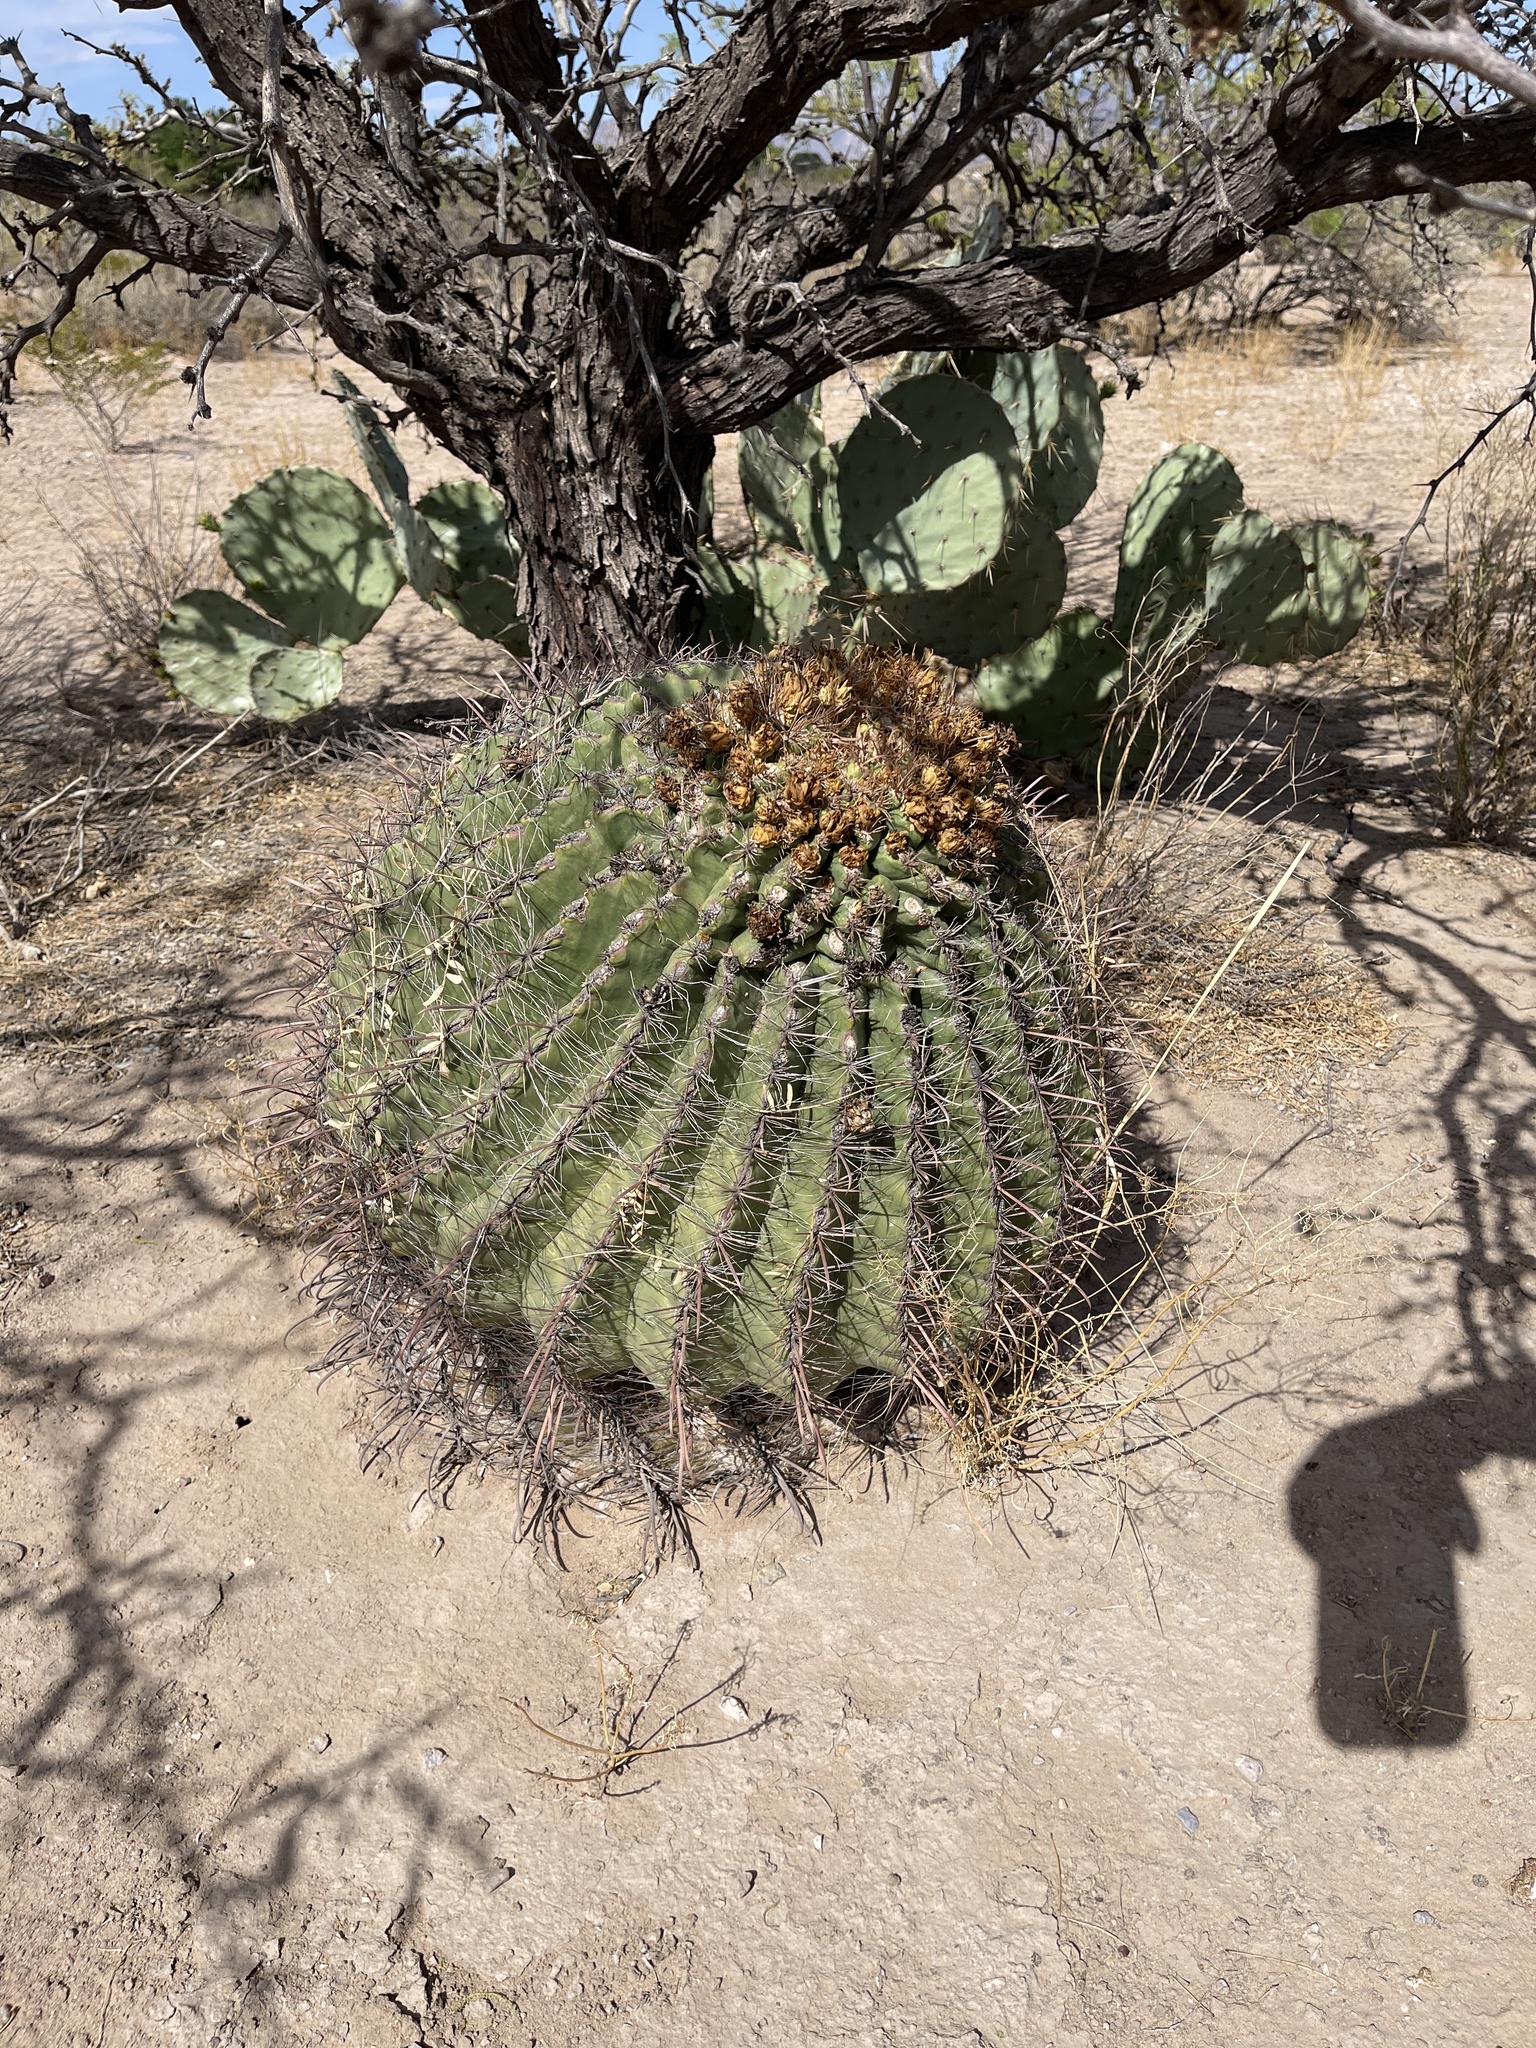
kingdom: Plantae
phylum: Tracheophyta
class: Magnoliopsida
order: Caryophyllales
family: Cactaceae
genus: Ferocactus
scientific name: Ferocactus wislizeni
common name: Candy barrel cactus
